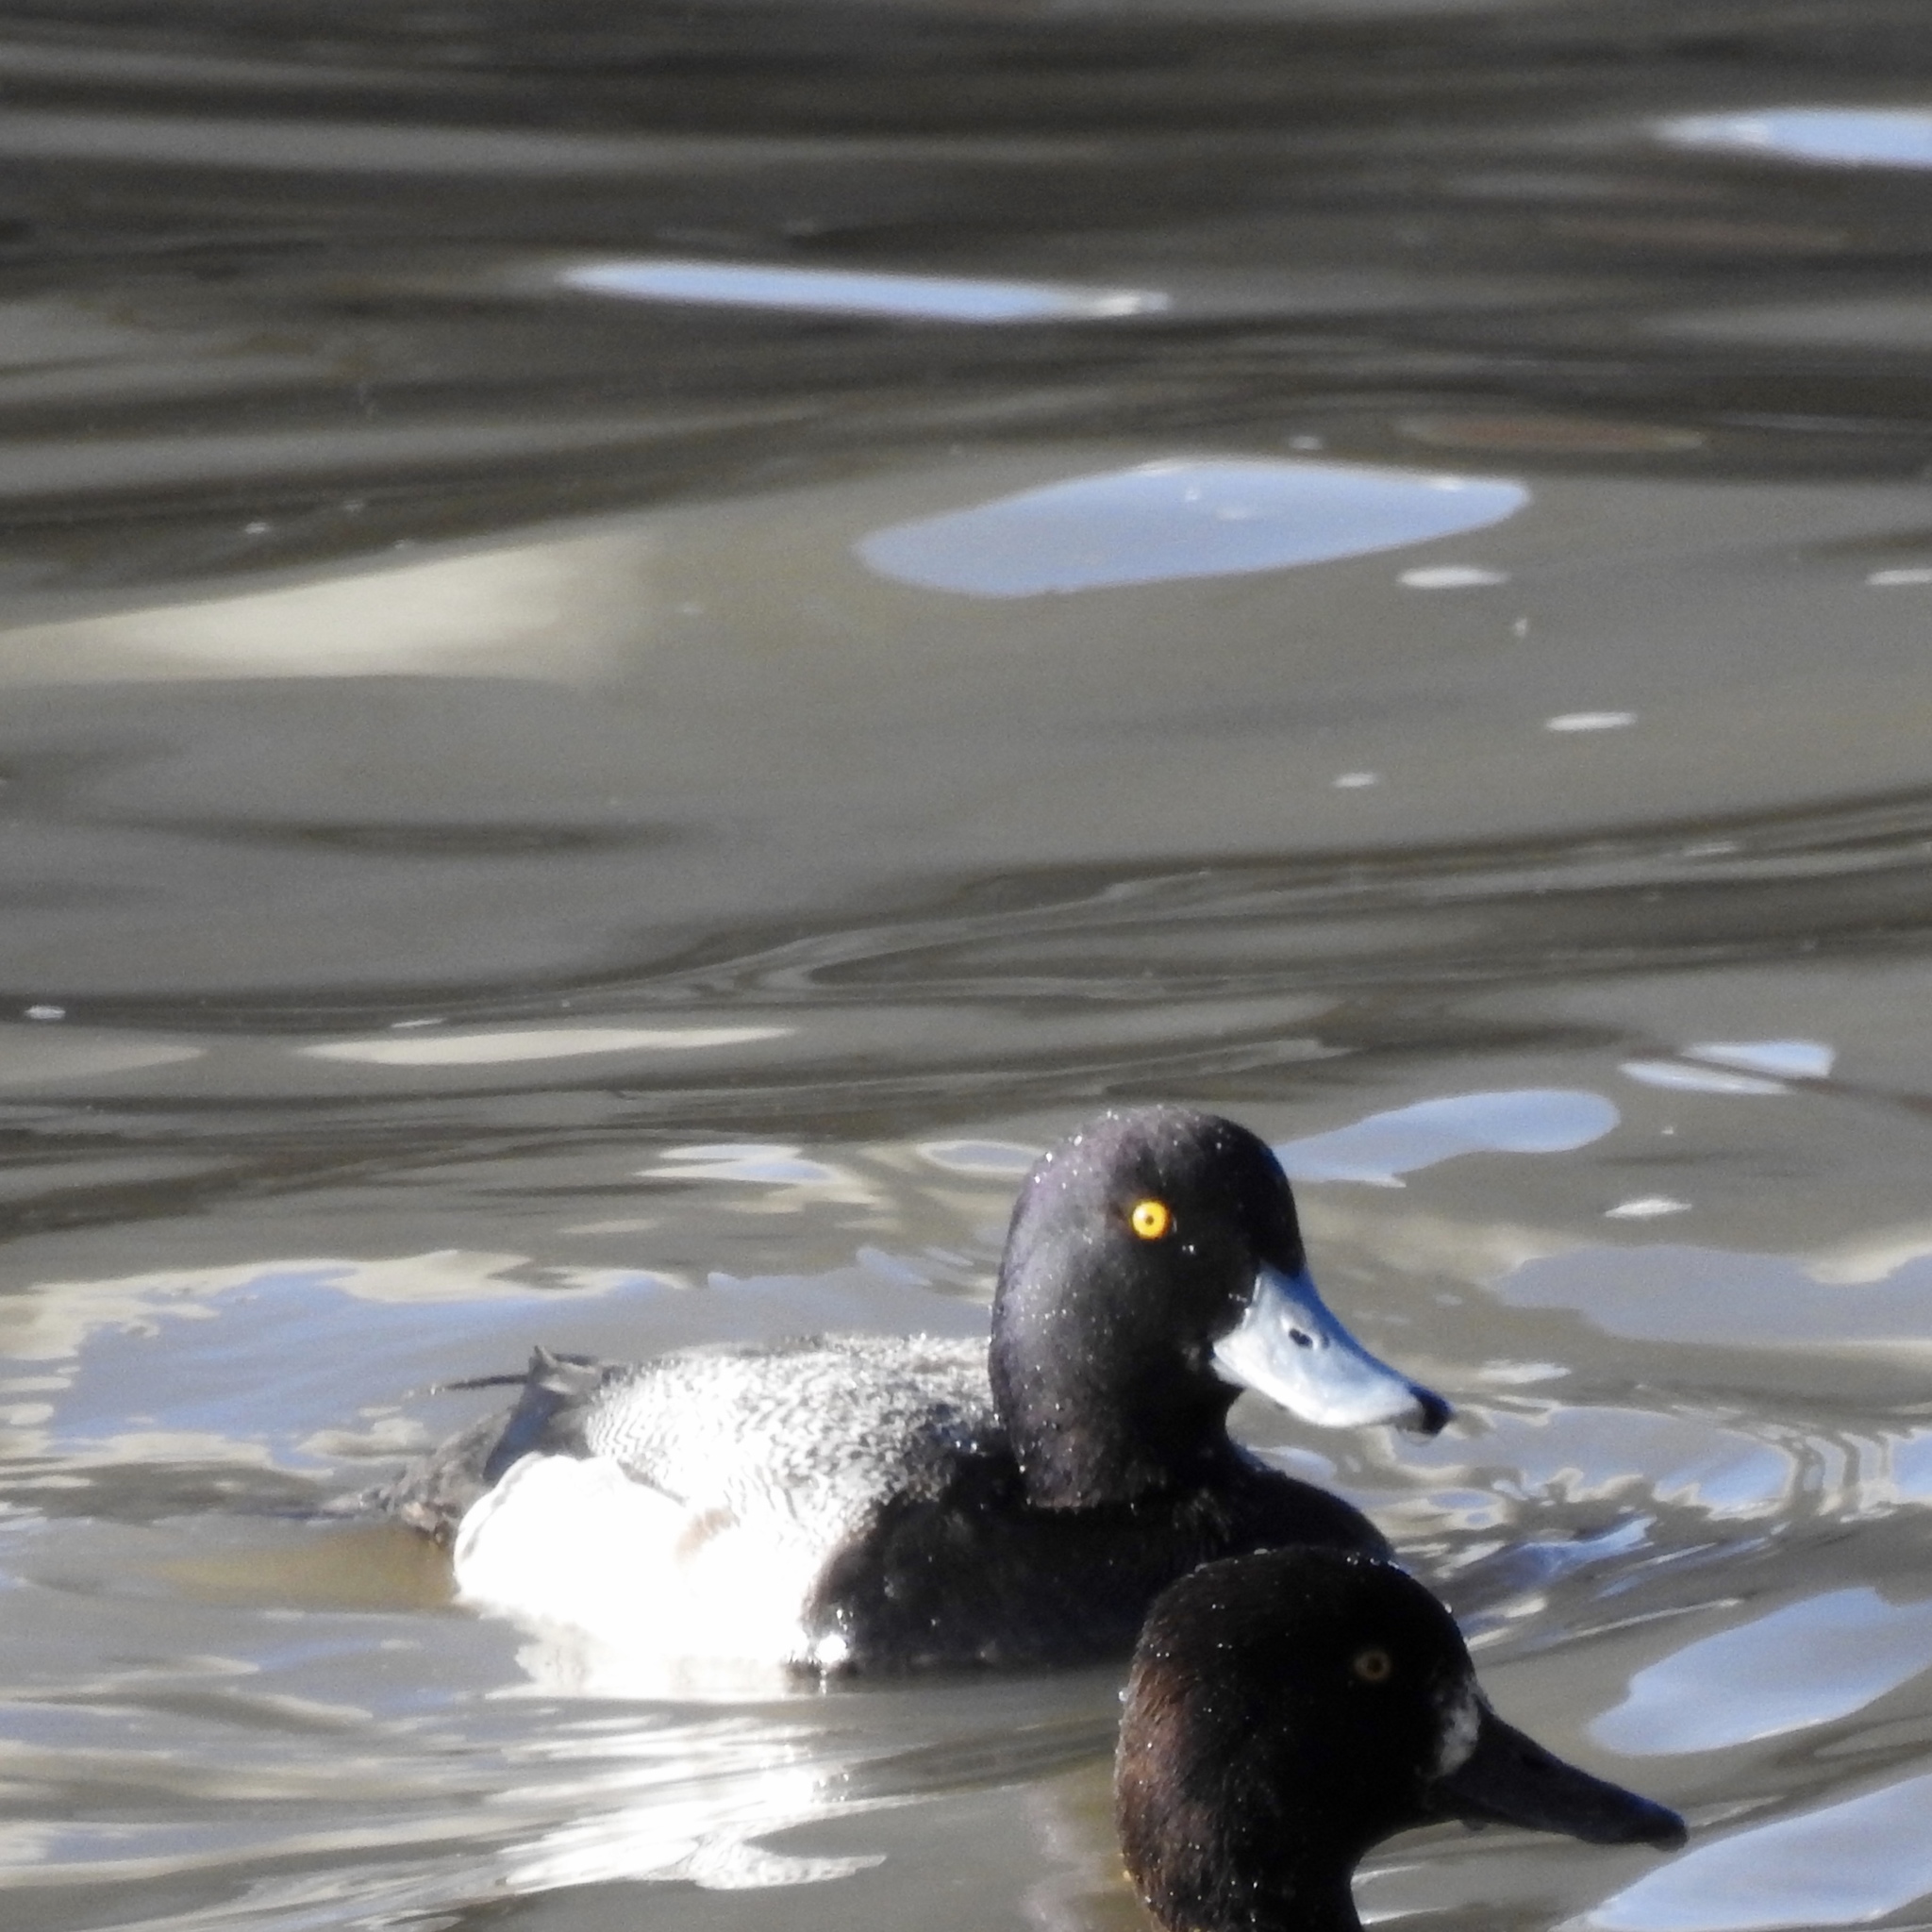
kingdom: Animalia
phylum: Chordata
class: Aves
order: Anseriformes
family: Anatidae
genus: Aythya
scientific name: Aythya affinis
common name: Lesser scaup
